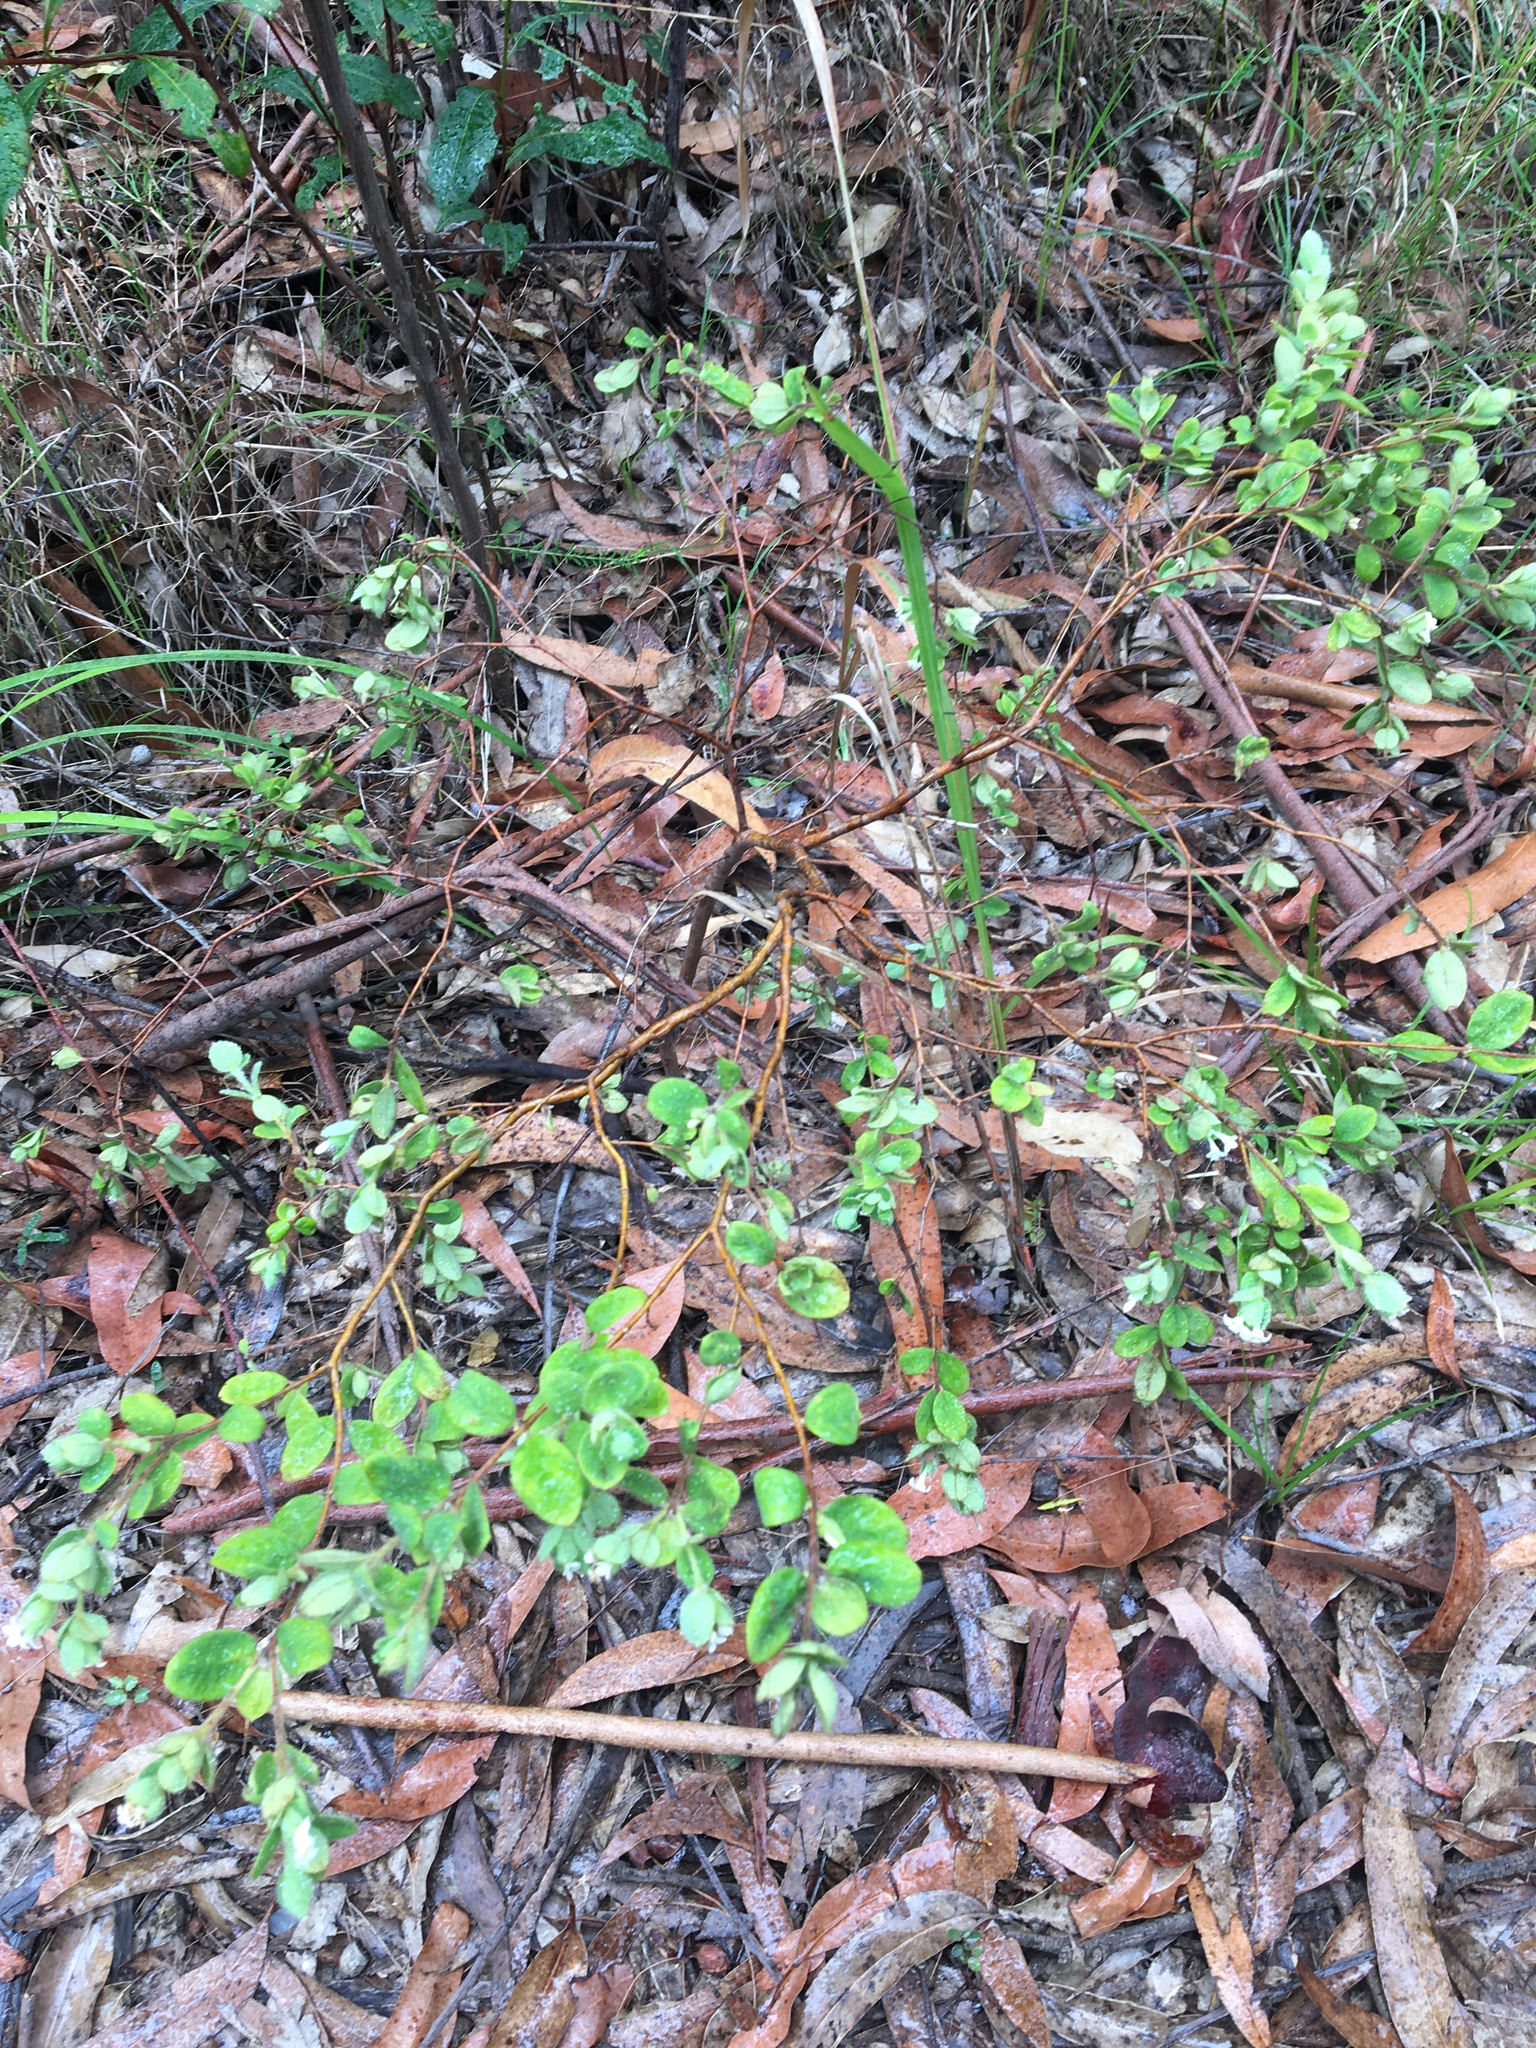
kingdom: Plantae
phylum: Tracheophyta
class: Magnoliopsida
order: Malvales
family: Thymelaeaceae
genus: Pimelea
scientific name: Pimelea altior
